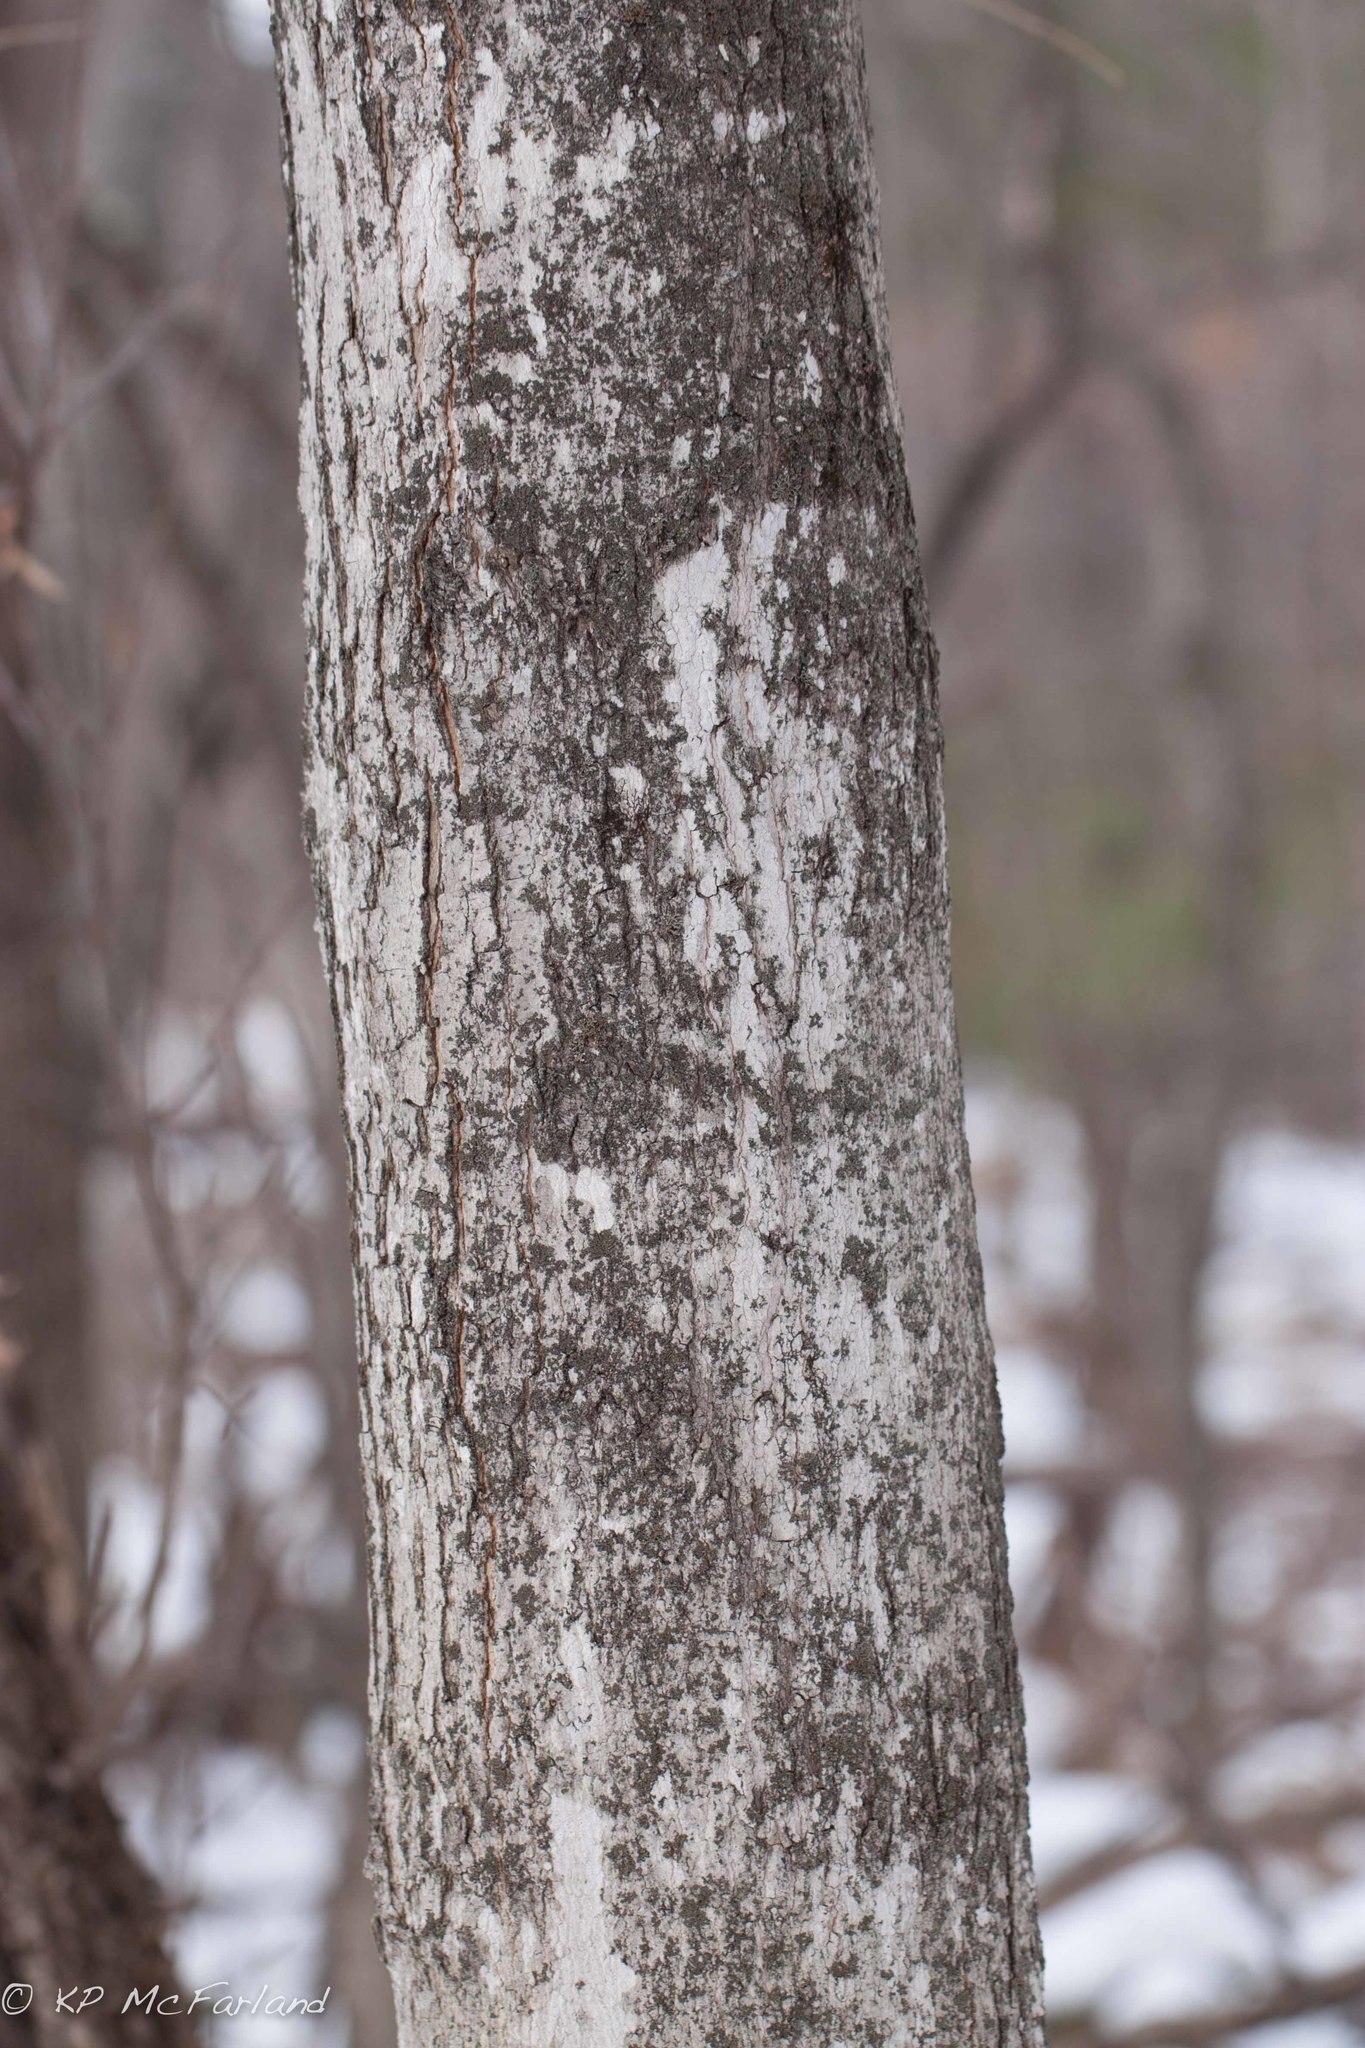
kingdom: Plantae
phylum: Tracheophyta
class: Magnoliopsida
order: Sapindales
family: Sapindaceae
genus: Acer
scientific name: Acer saccharum
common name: Sugar maple
